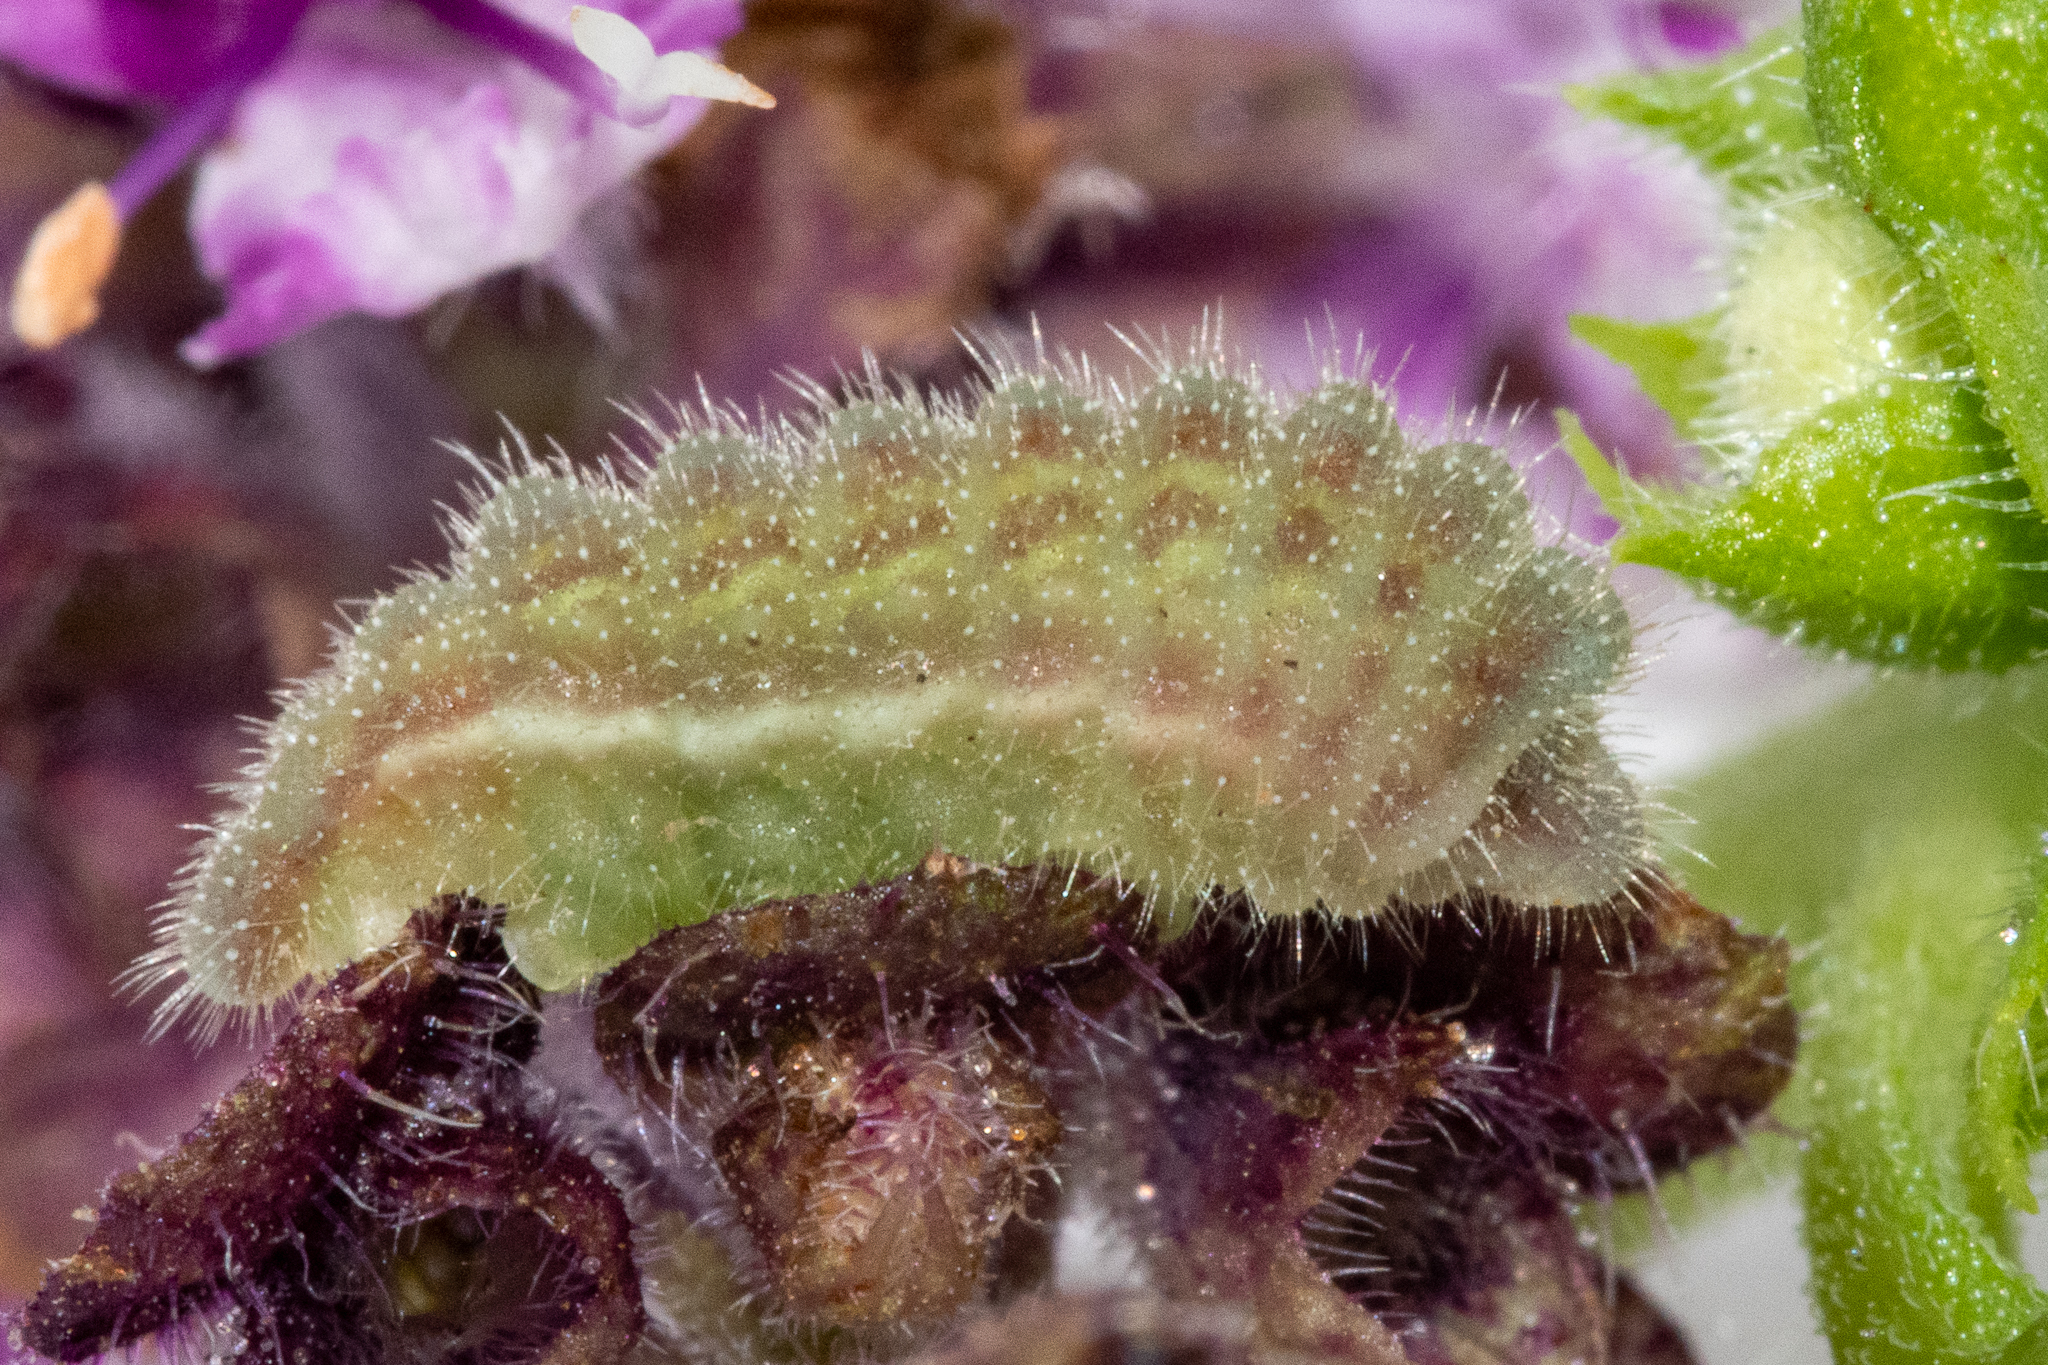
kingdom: Animalia
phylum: Arthropoda
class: Insecta
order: Lepidoptera
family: Lycaenidae
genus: Cacyreus
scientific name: Cacyreus lingeus
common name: Bush bronze
